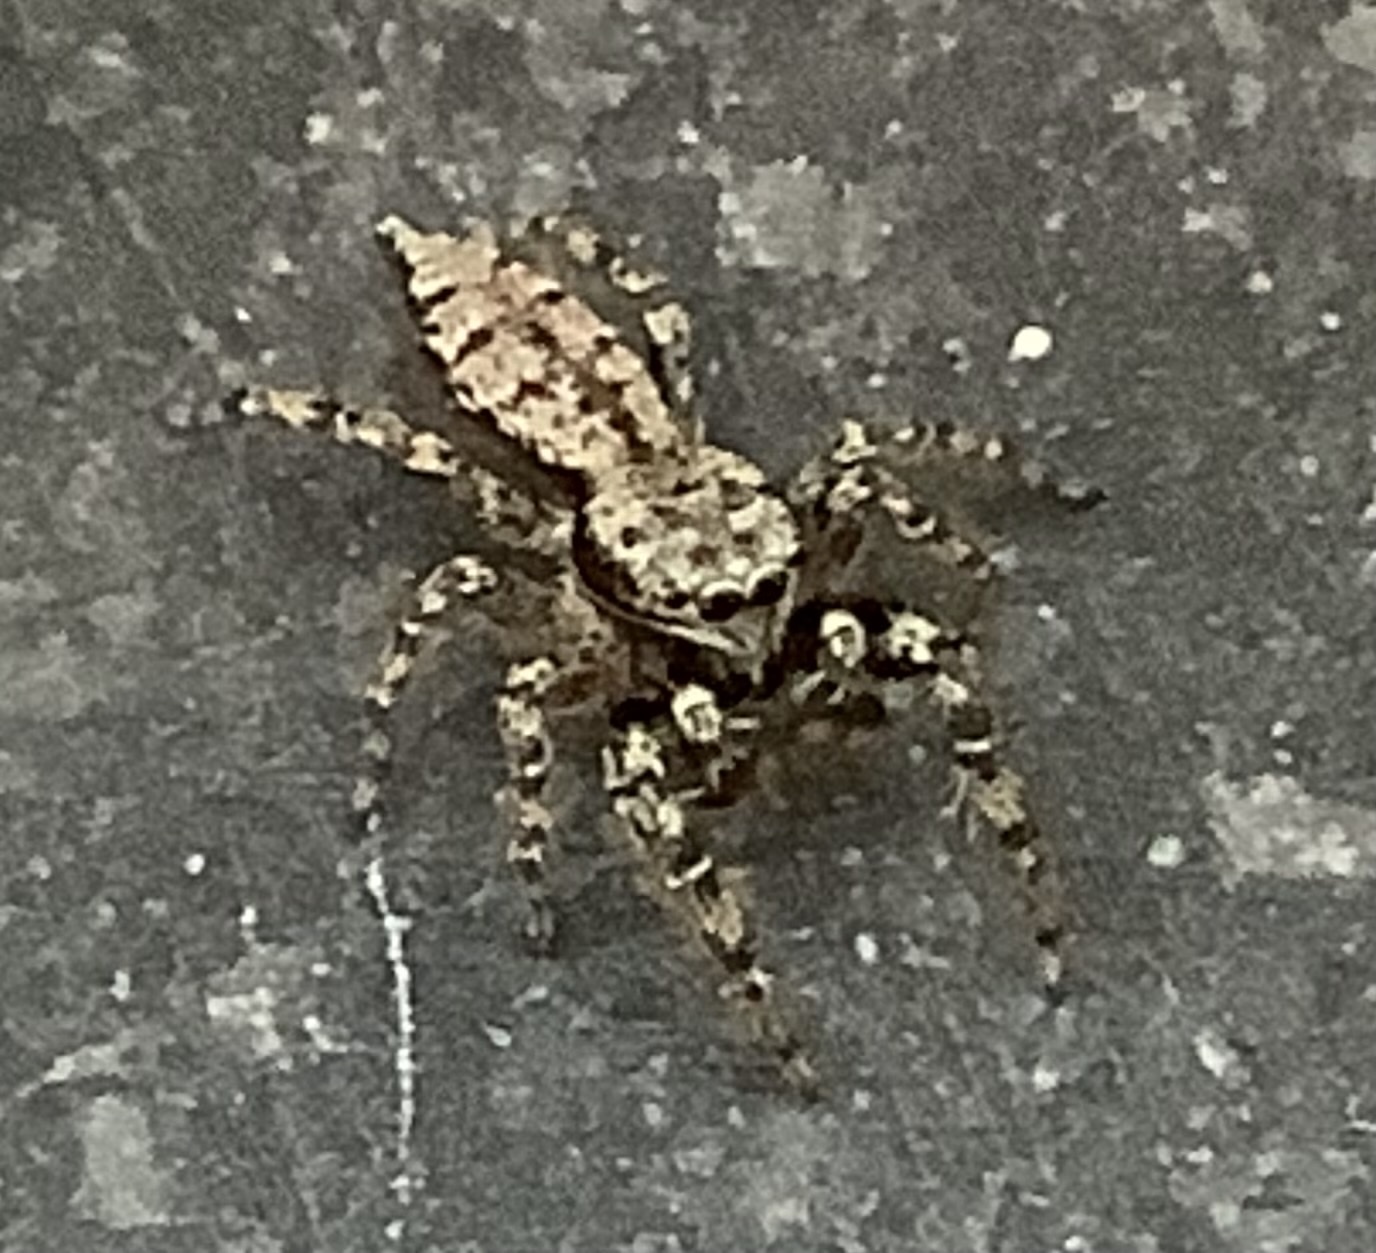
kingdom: Animalia
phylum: Arthropoda
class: Arachnida
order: Araneae
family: Salticidae
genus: Marpissa
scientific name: Marpissa muscosa
